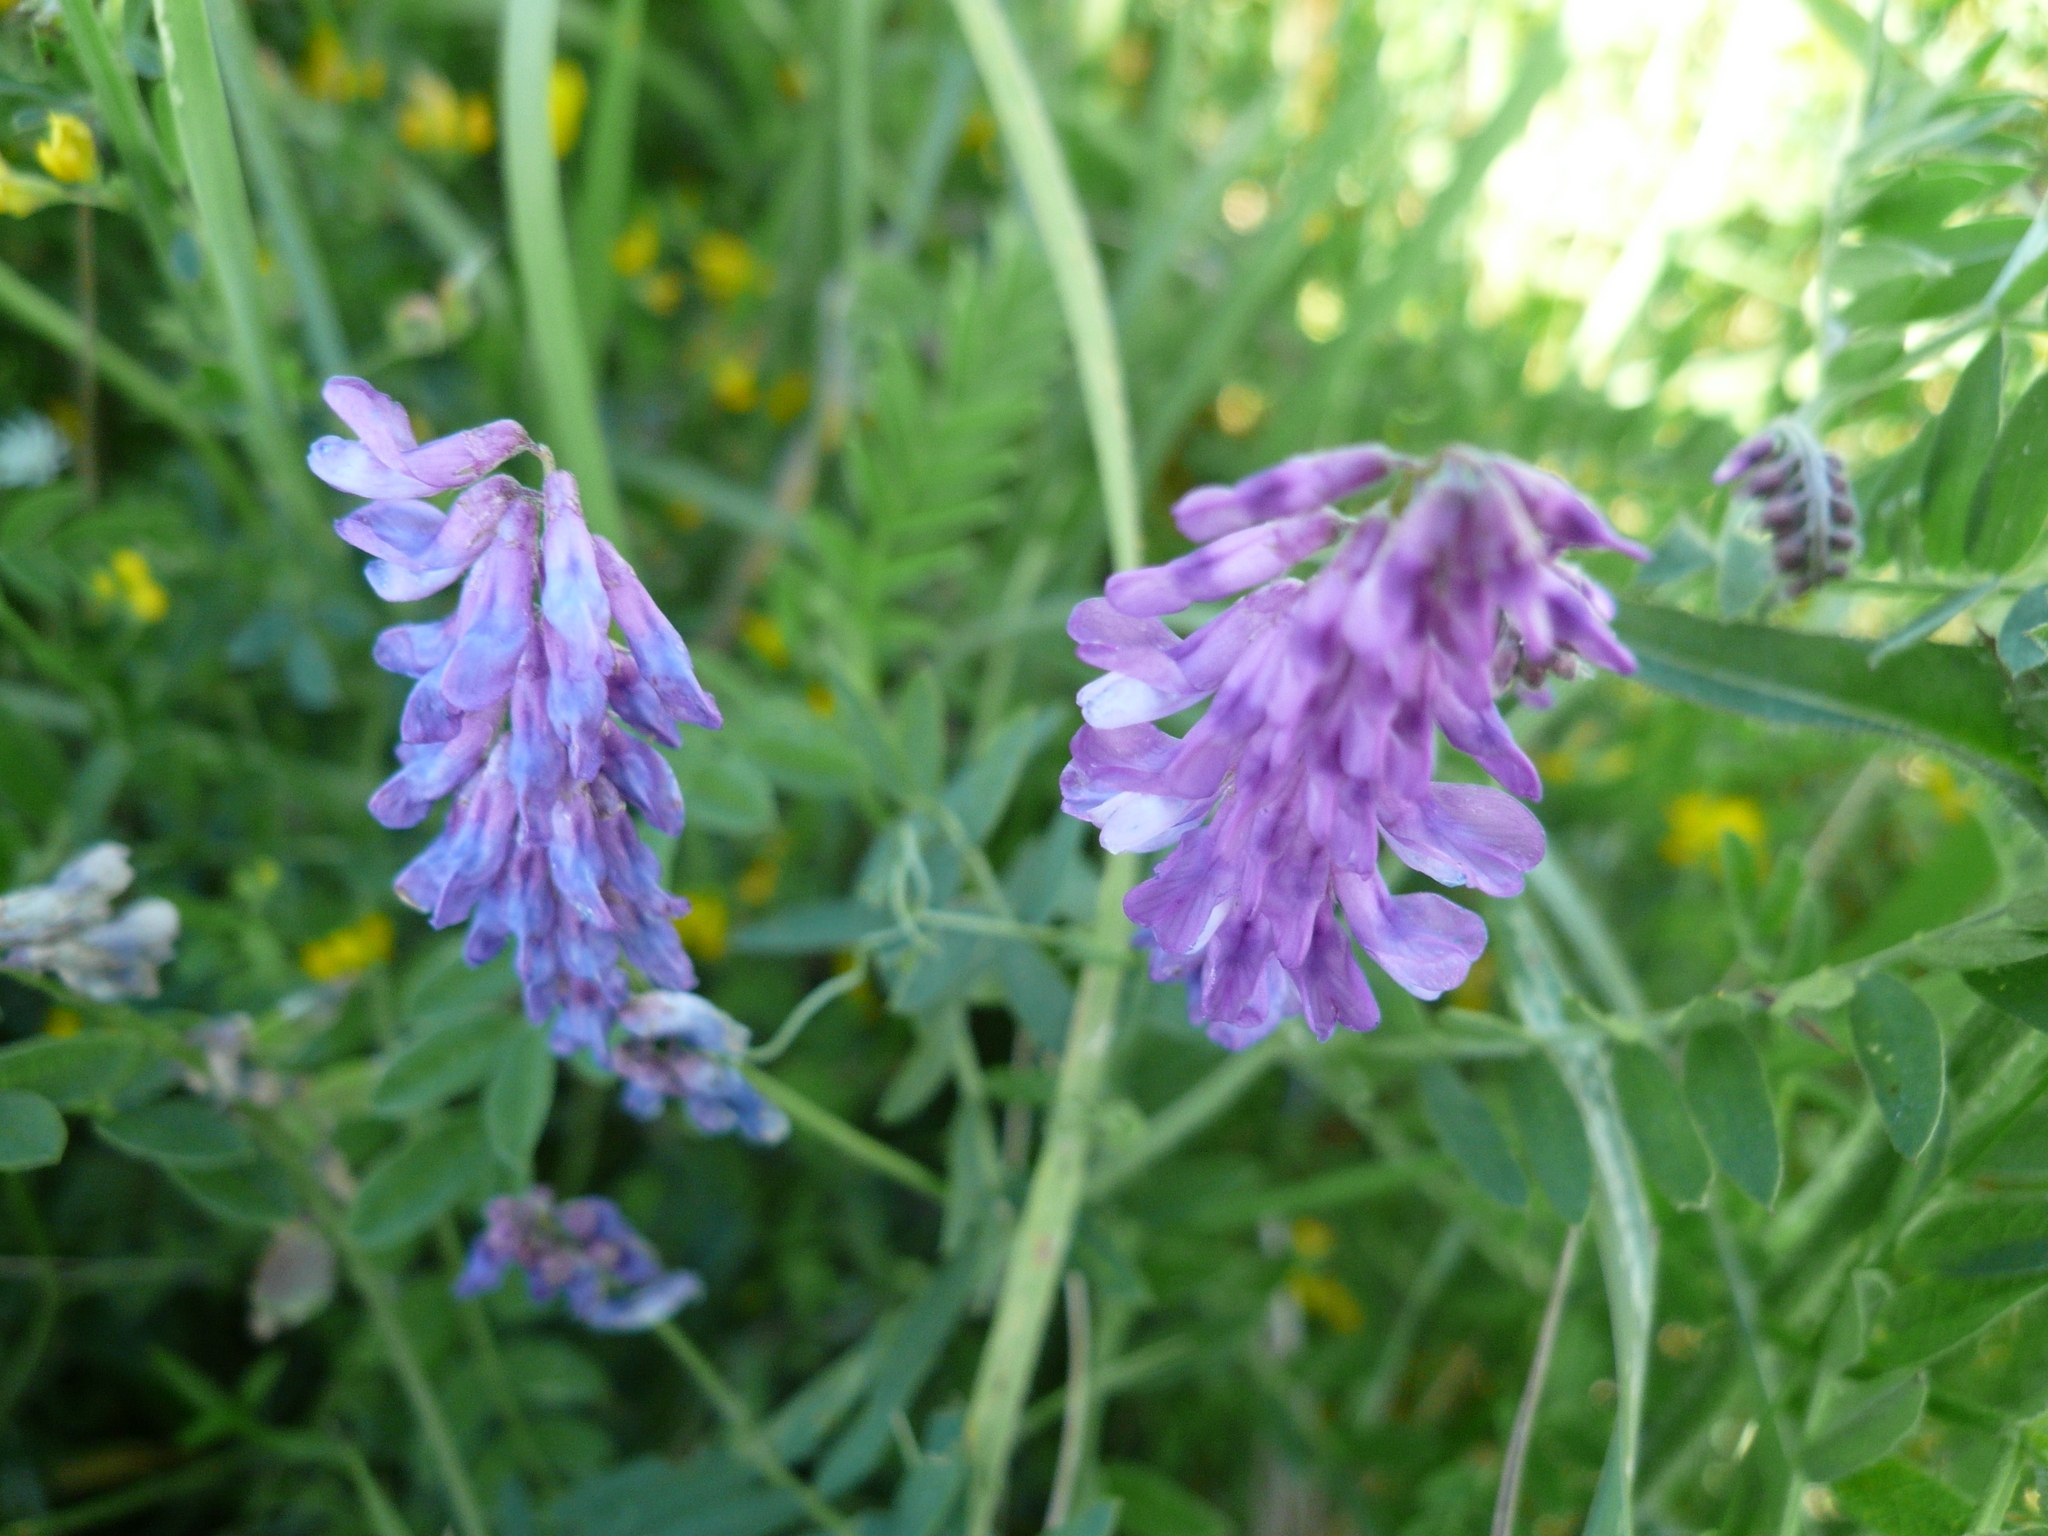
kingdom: Plantae
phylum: Tracheophyta
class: Magnoliopsida
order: Fabales
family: Fabaceae
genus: Vicia
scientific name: Vicia cracca
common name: Bird vetch
